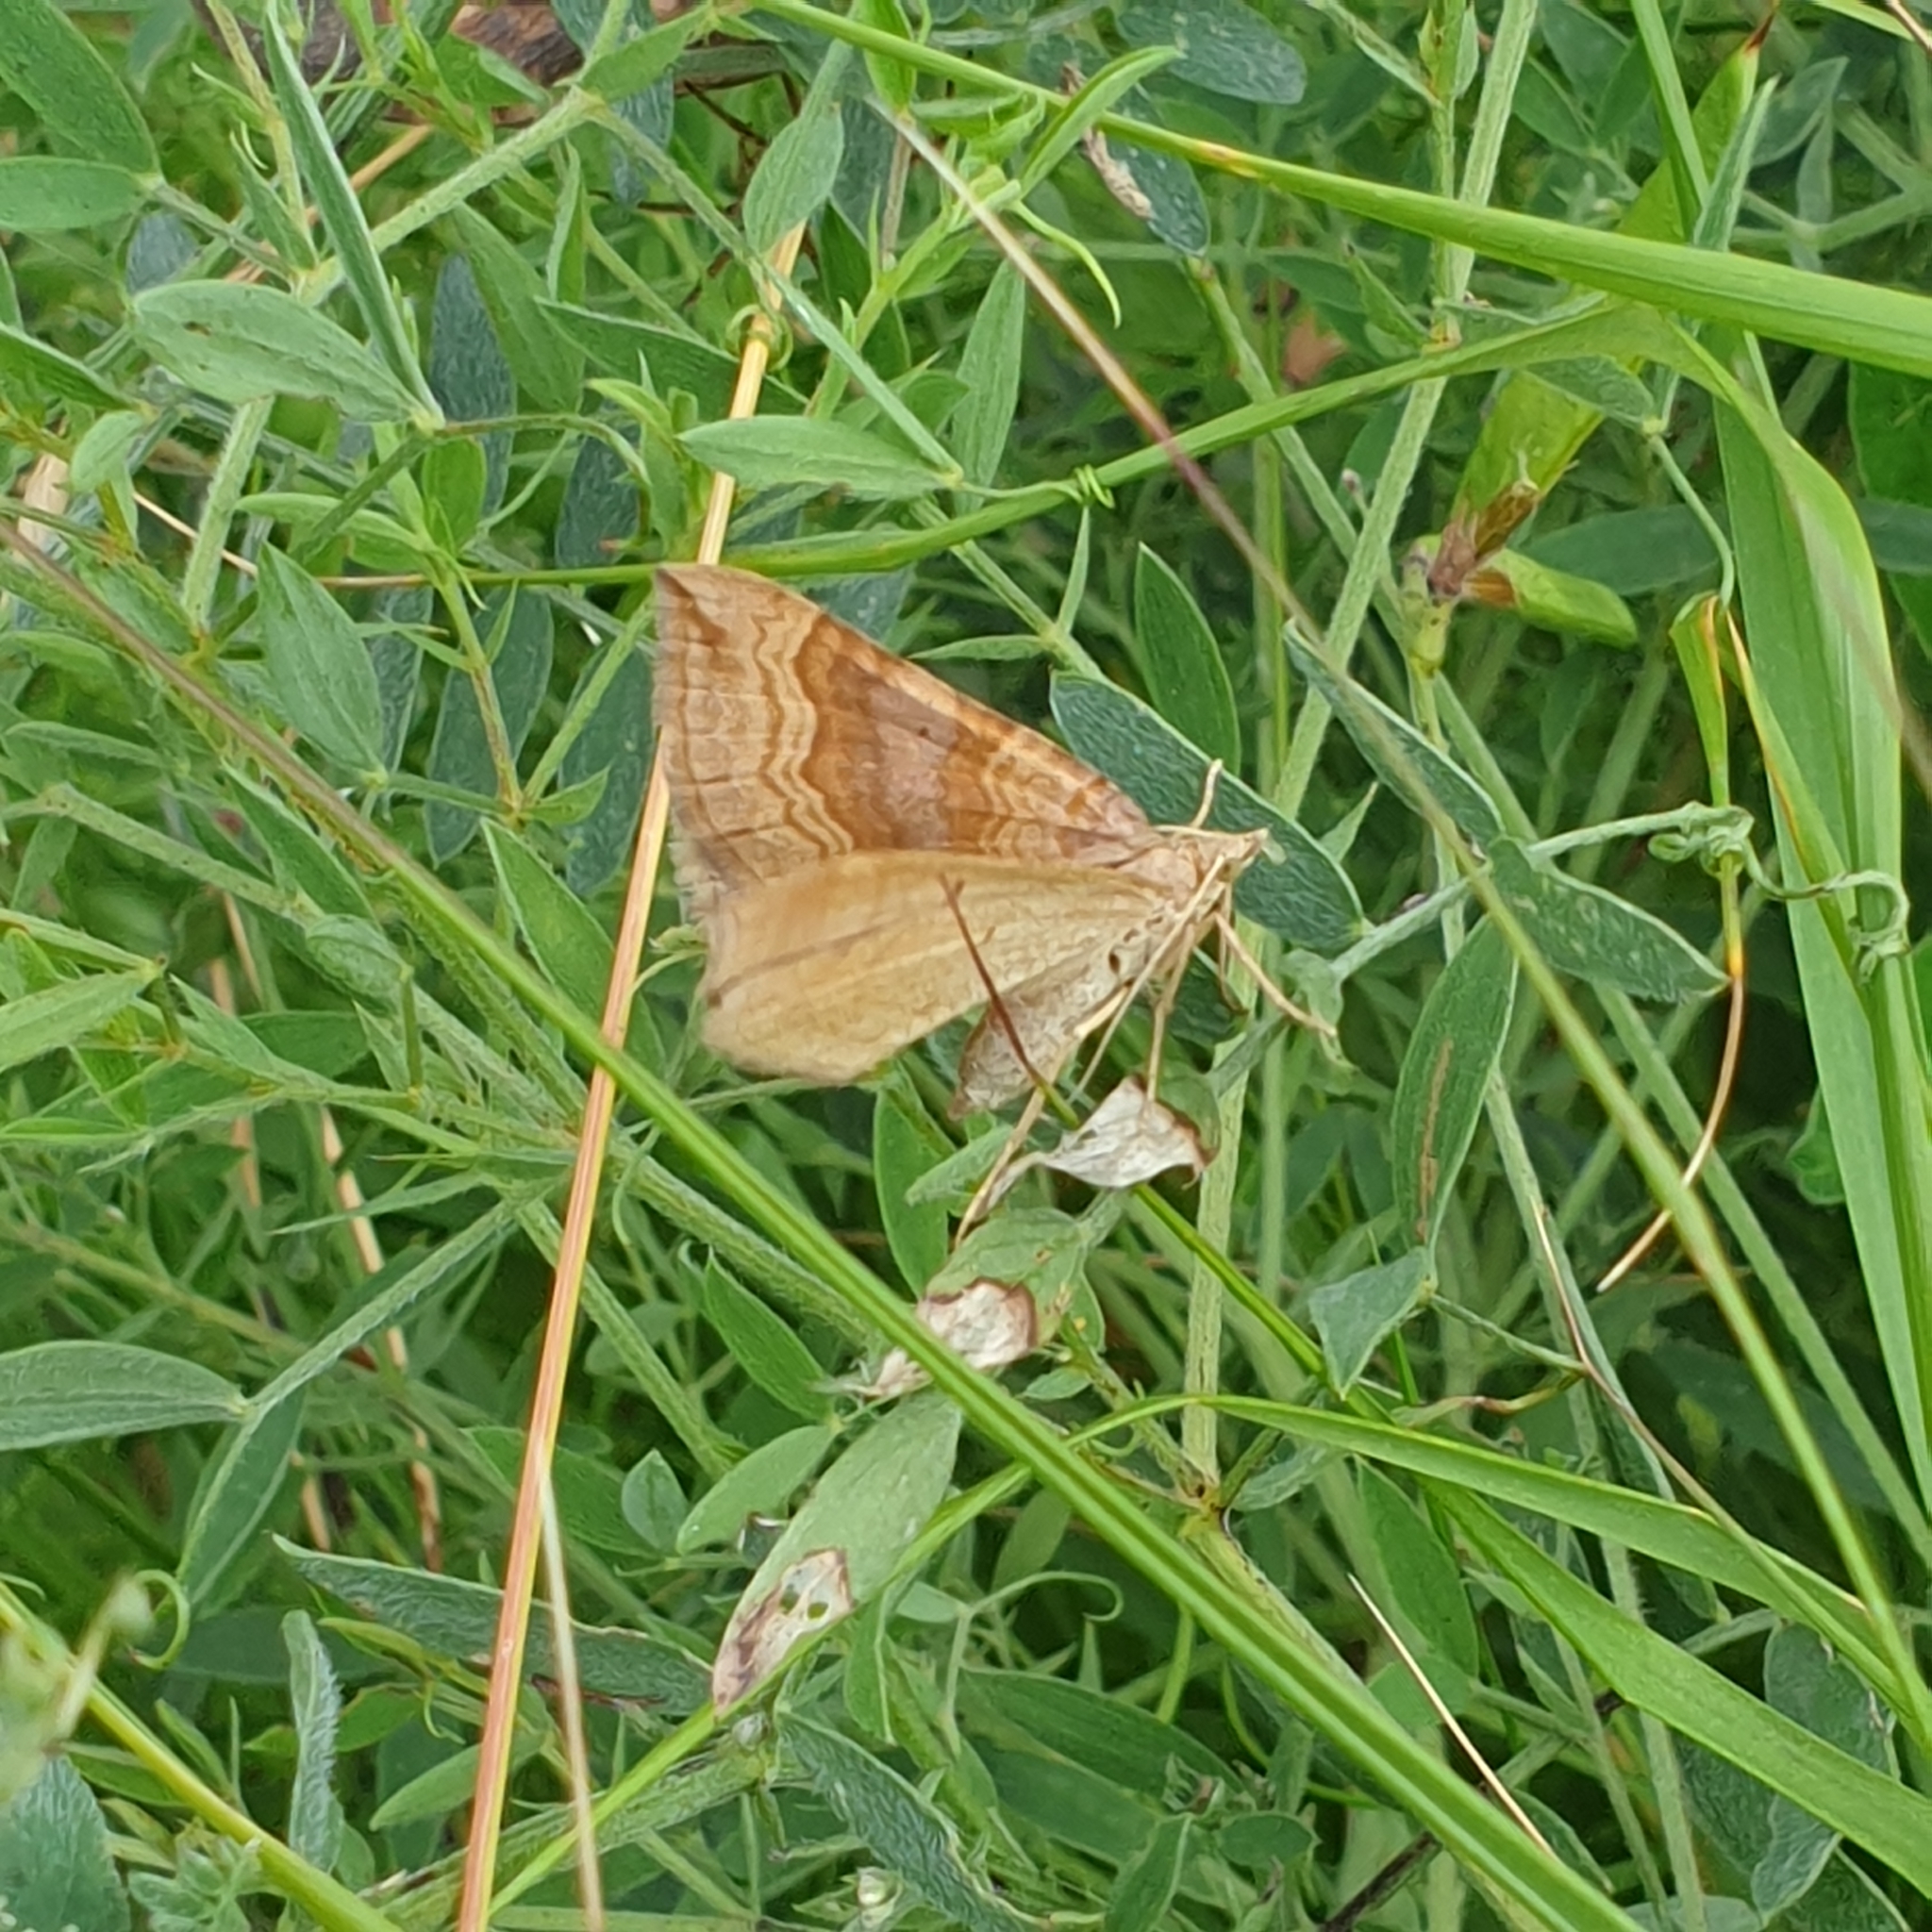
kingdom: Animalia
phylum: Arthropoda
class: Insecta
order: Lepidoptera
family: Geometridae
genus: Scotopteryx
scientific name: Scotopteryx chenopodiata
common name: Shaded broad-bar
